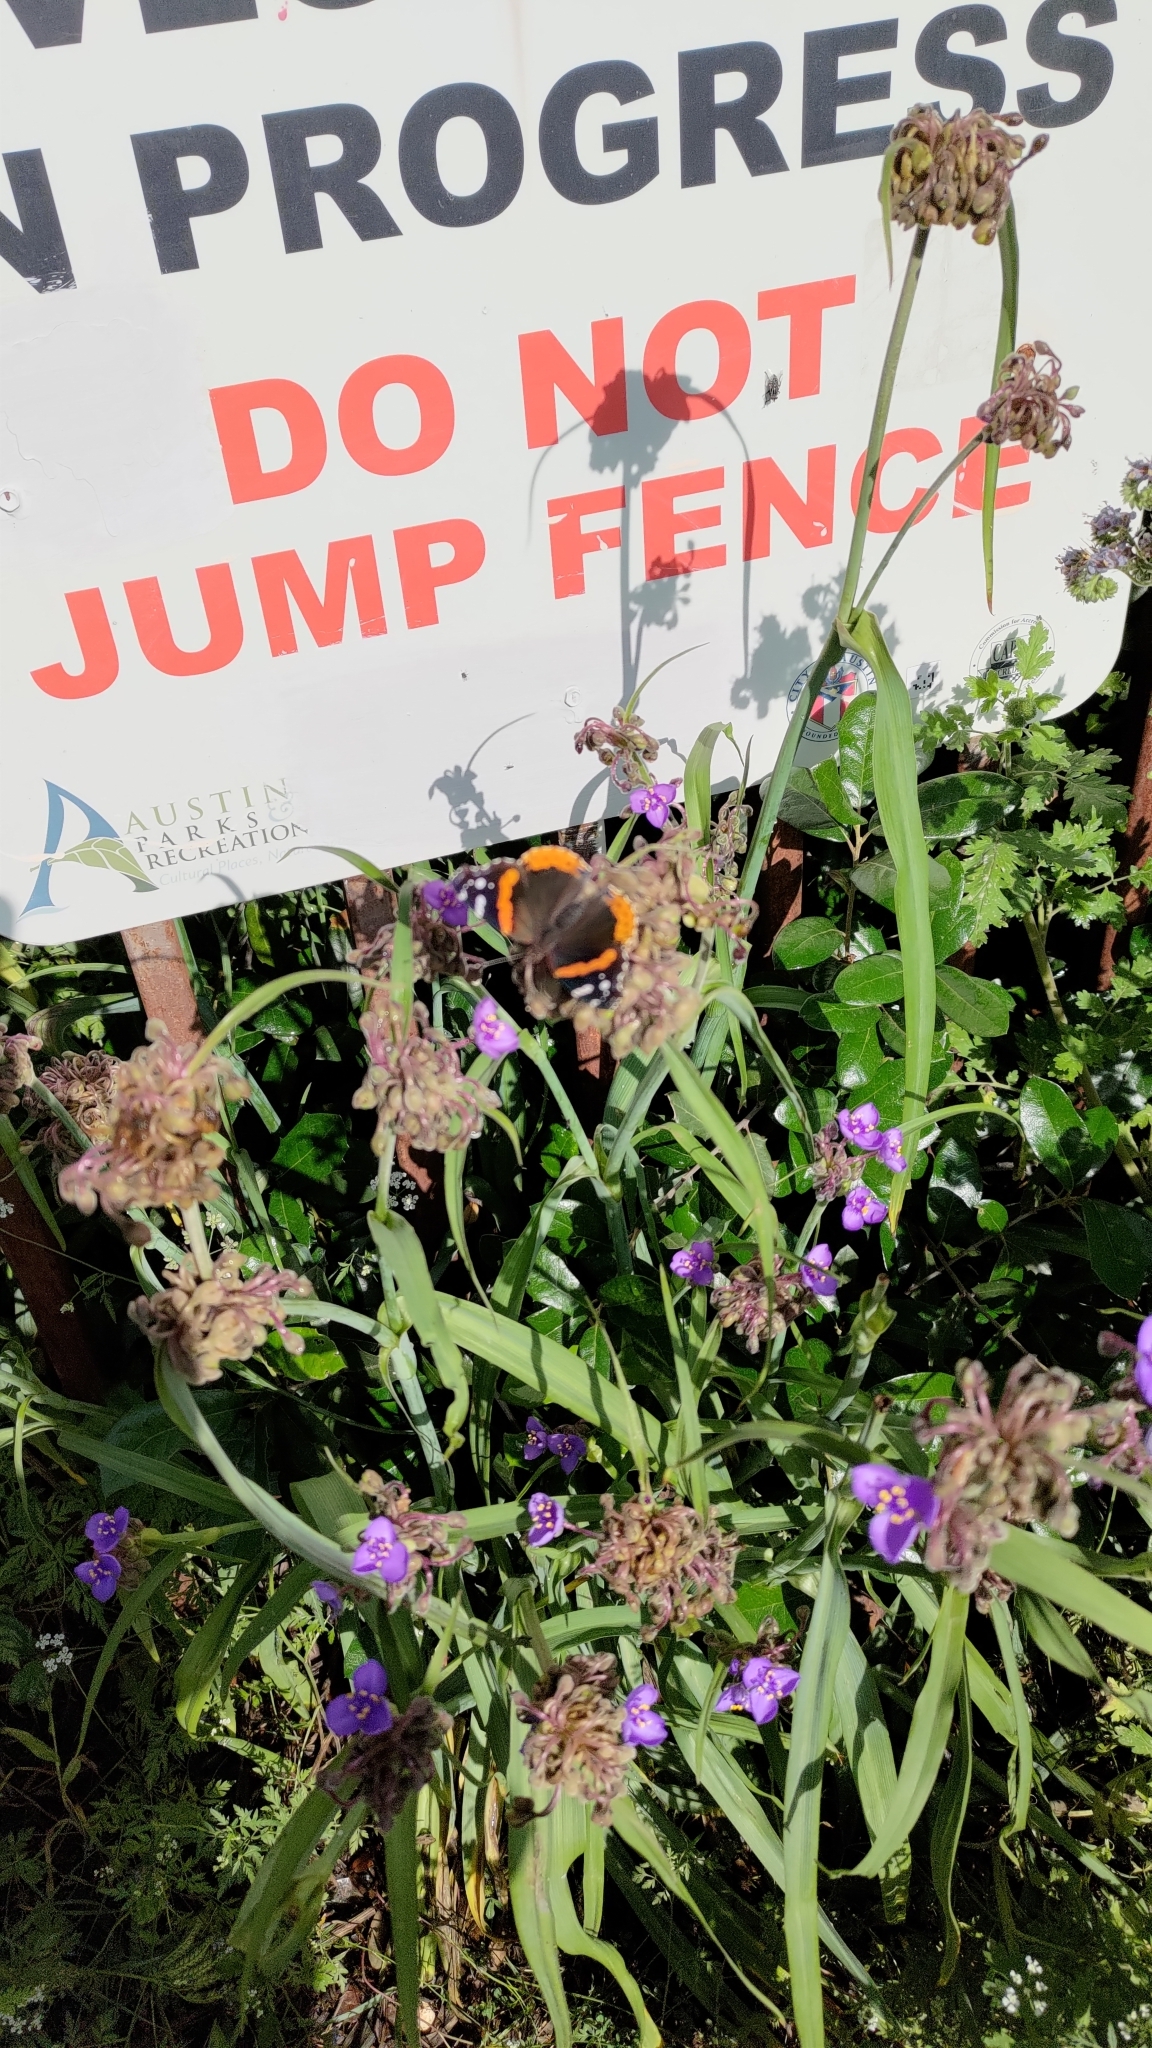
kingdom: Animalia
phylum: Arthropoda
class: Insecta
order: Lepidoptera
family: Nymphalidae
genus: Vanessa
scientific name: Vanessa atalanta
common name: Red admiral
